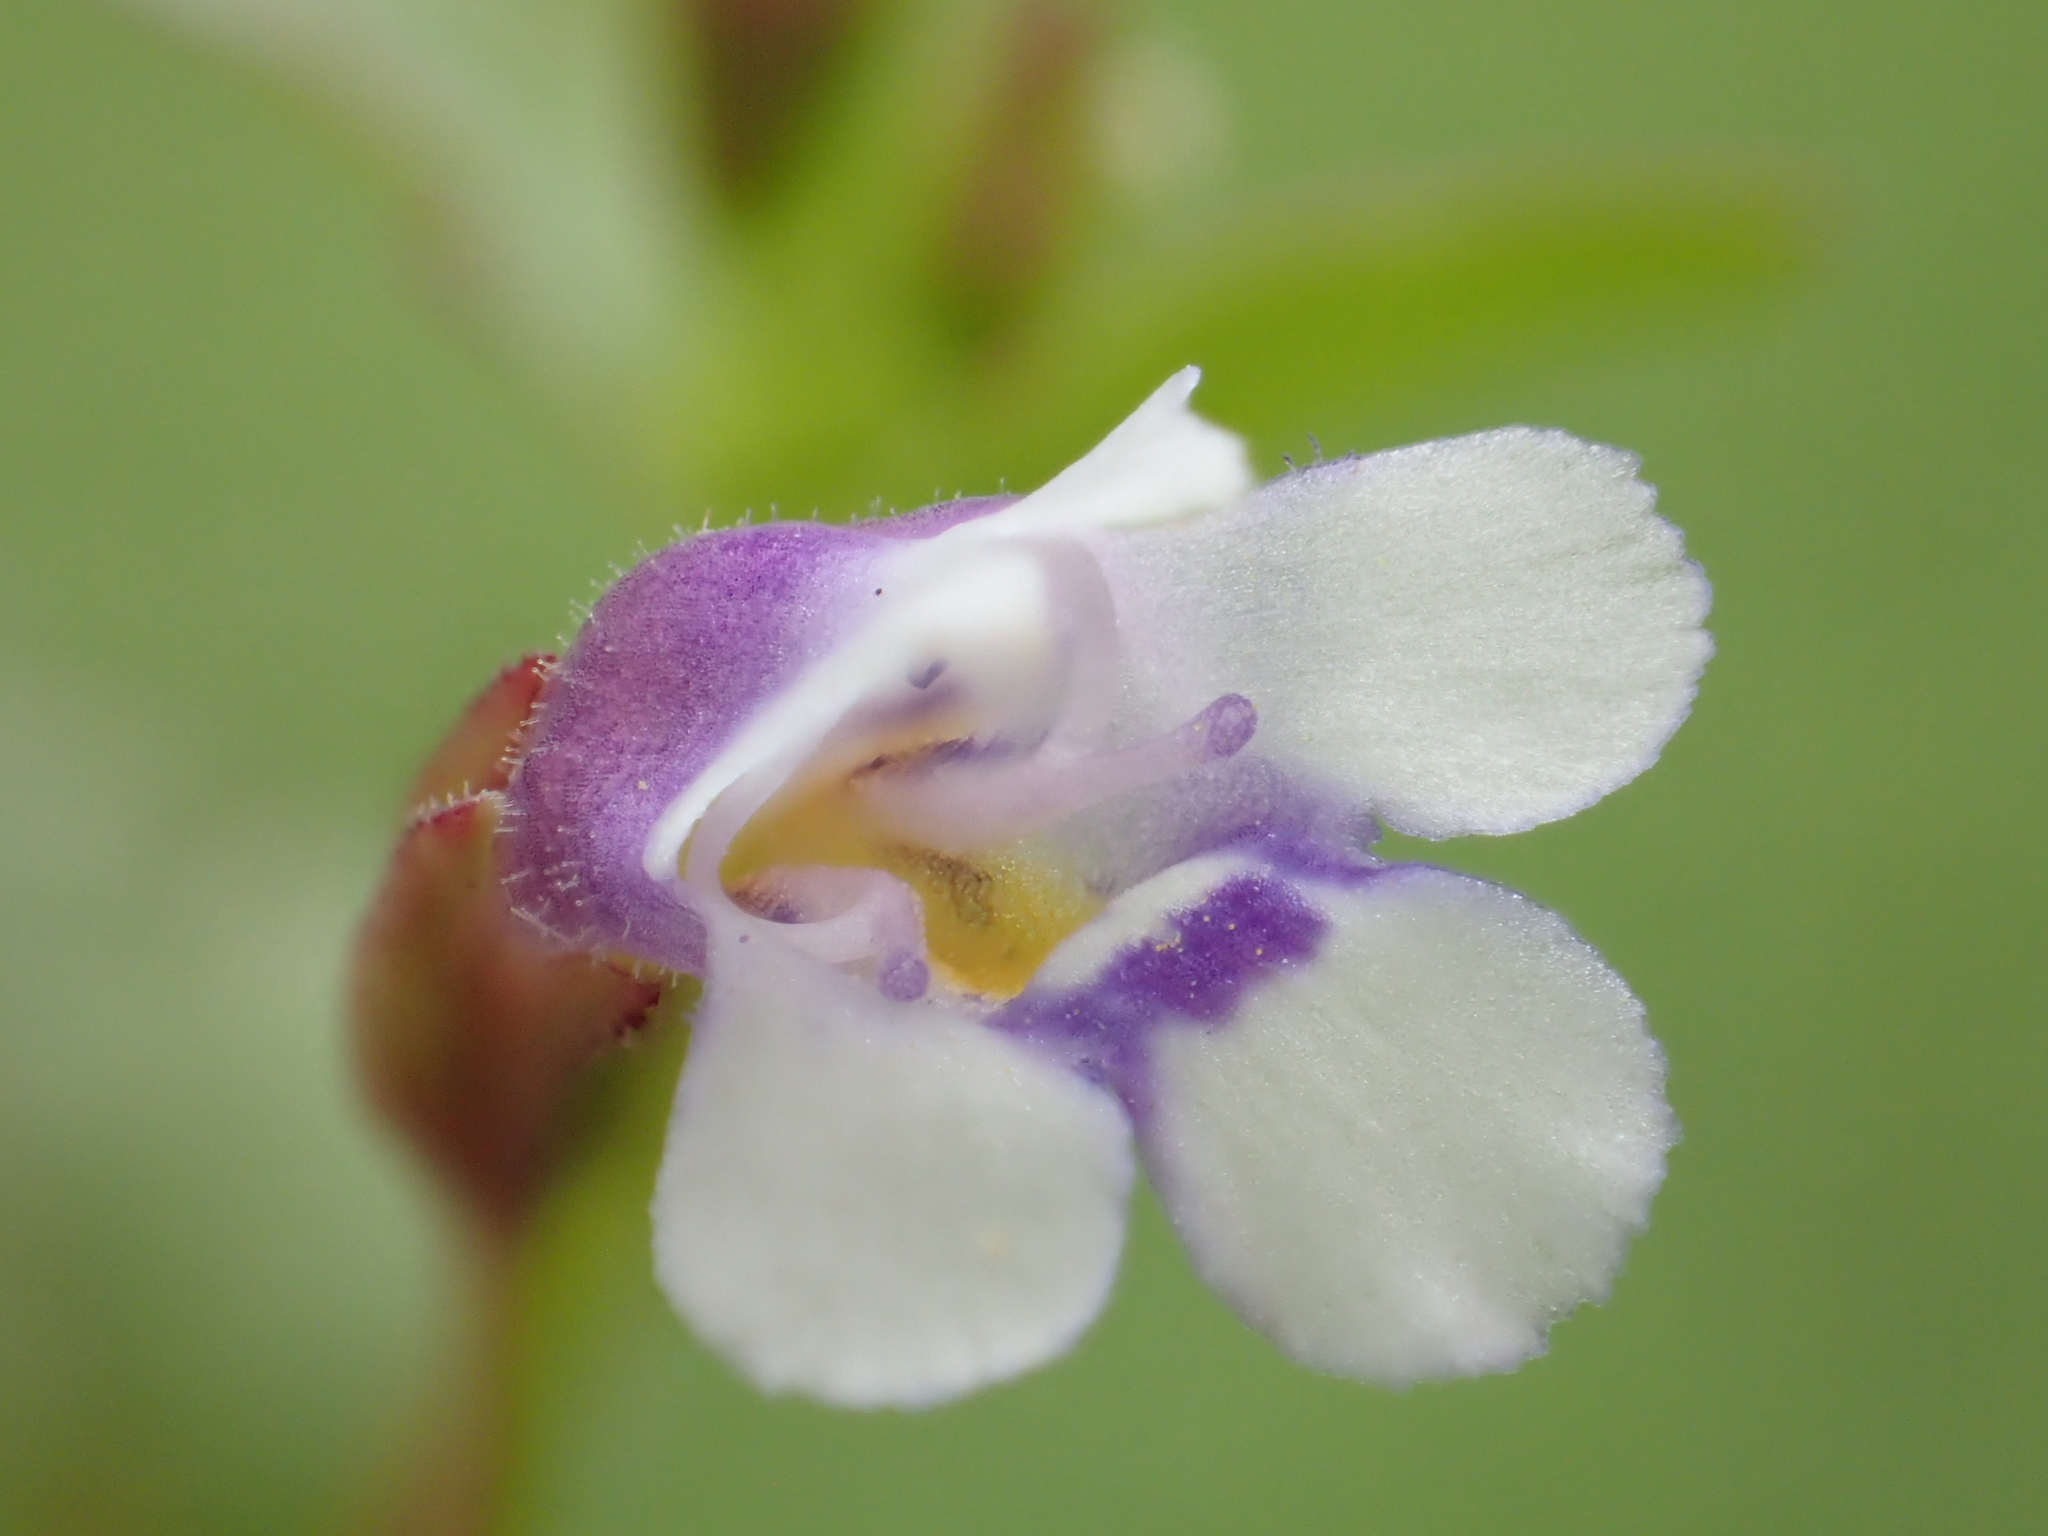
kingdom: Plantae
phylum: Tracheophyta
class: Magnoliopsida
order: Lamiales
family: Linderniaceae
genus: Torenia
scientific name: Torenia crustacea
